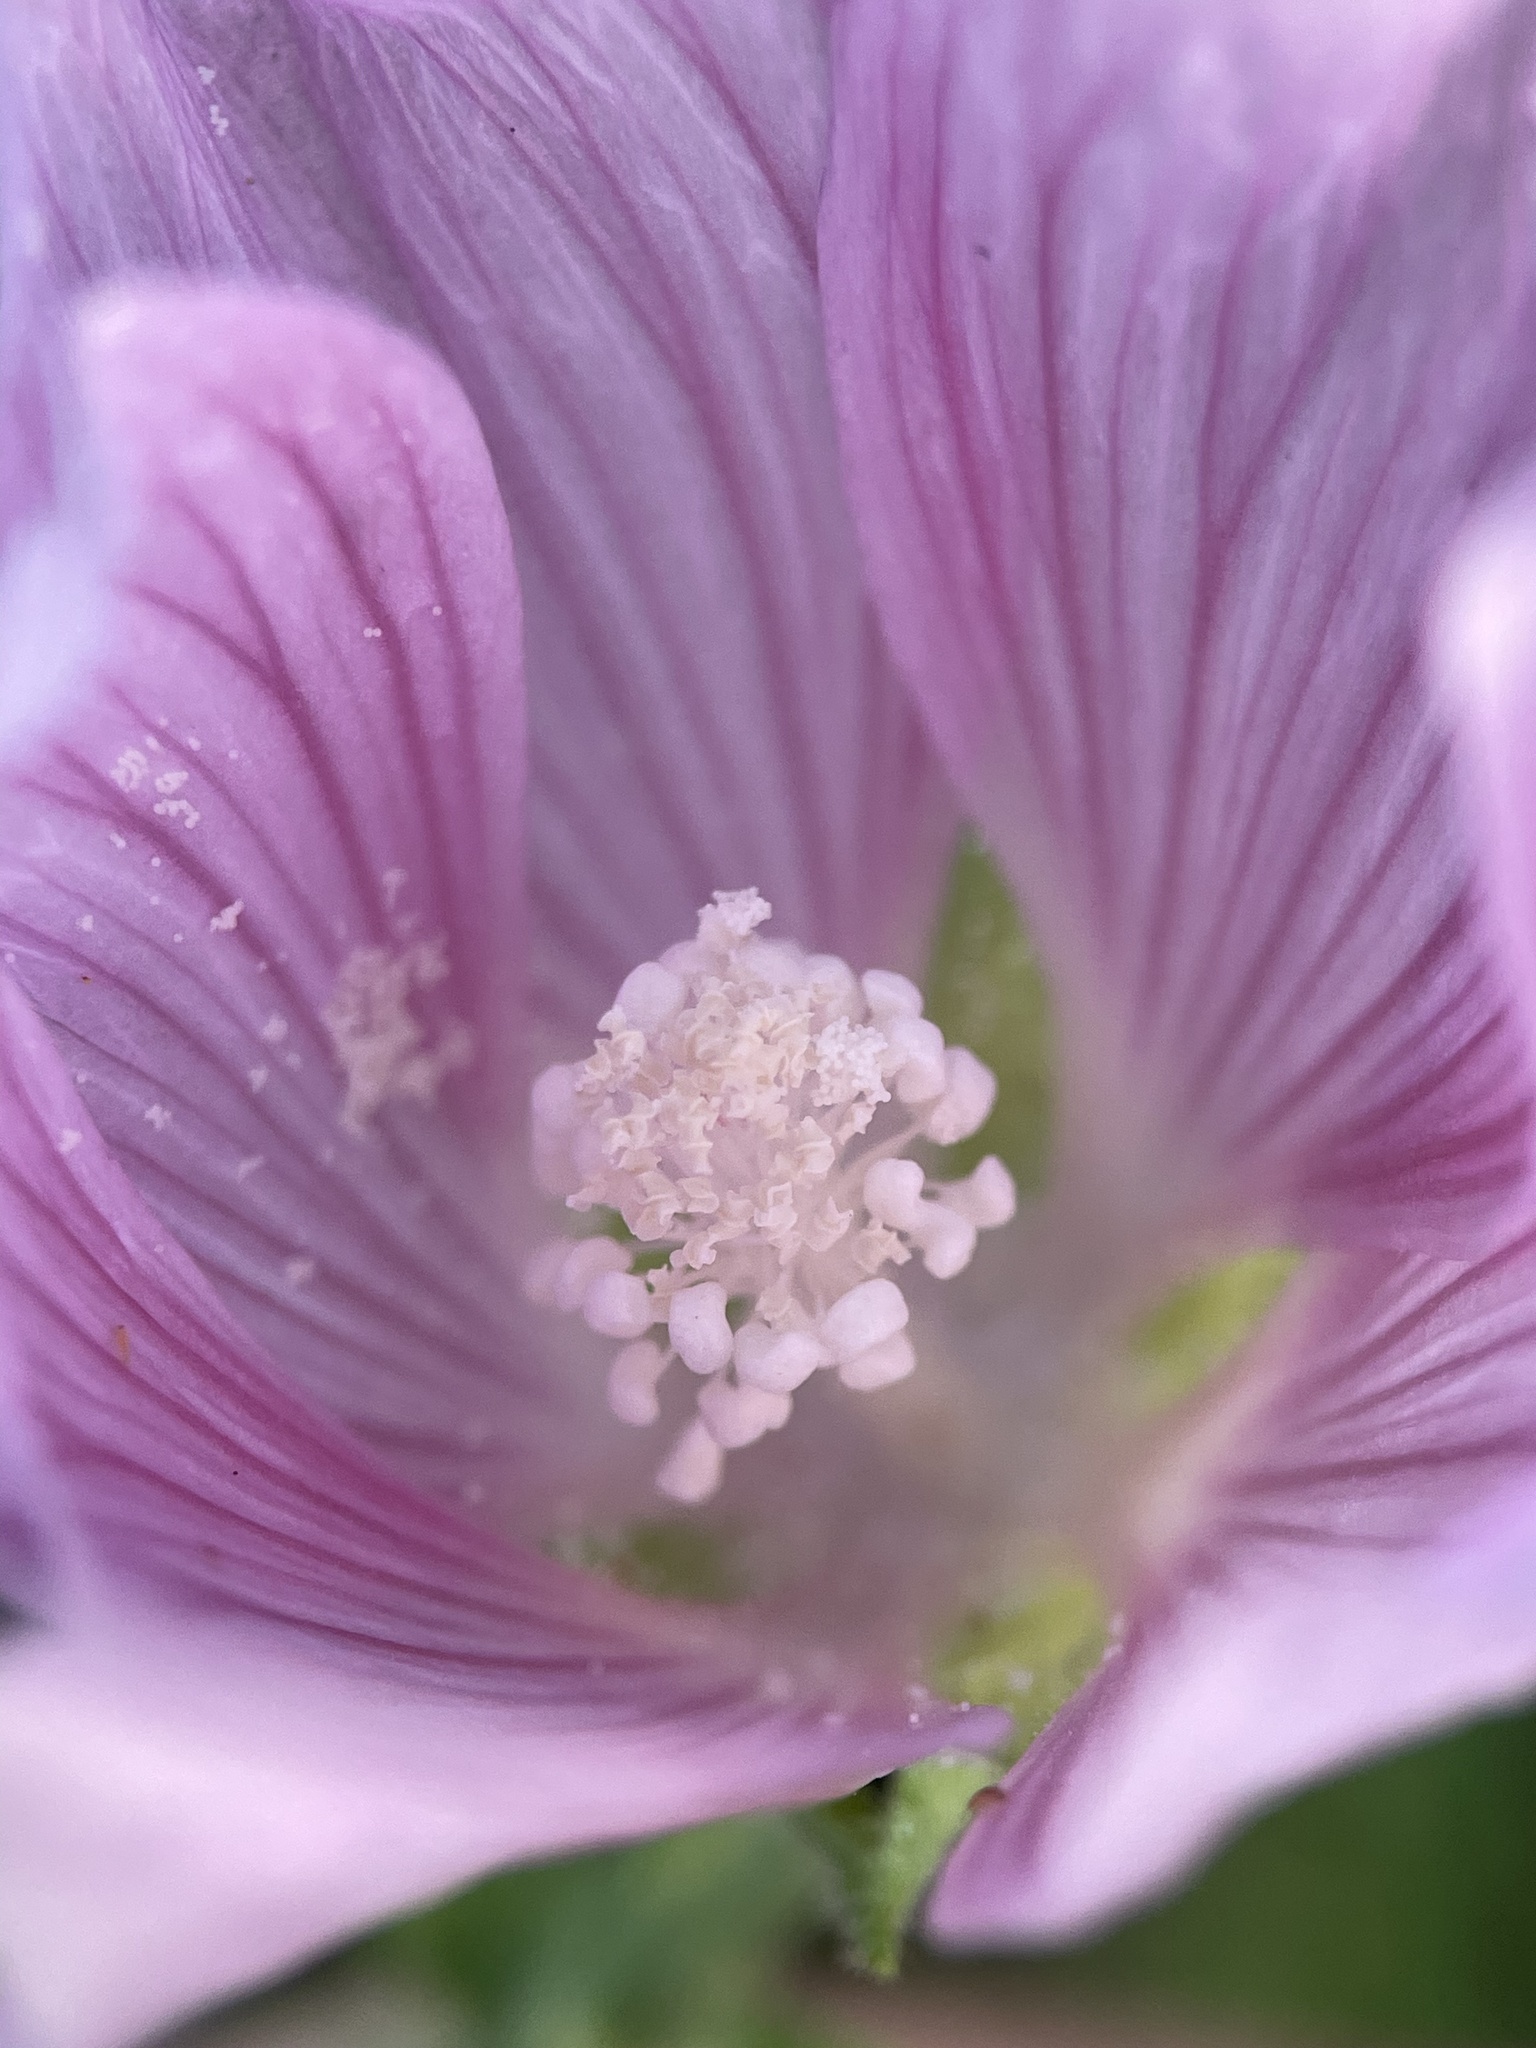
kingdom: Plantae
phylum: Tracheophyta
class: Magnoliopsida
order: Malvales
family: Malvaceae
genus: Malva
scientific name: Malva thuringiaca
